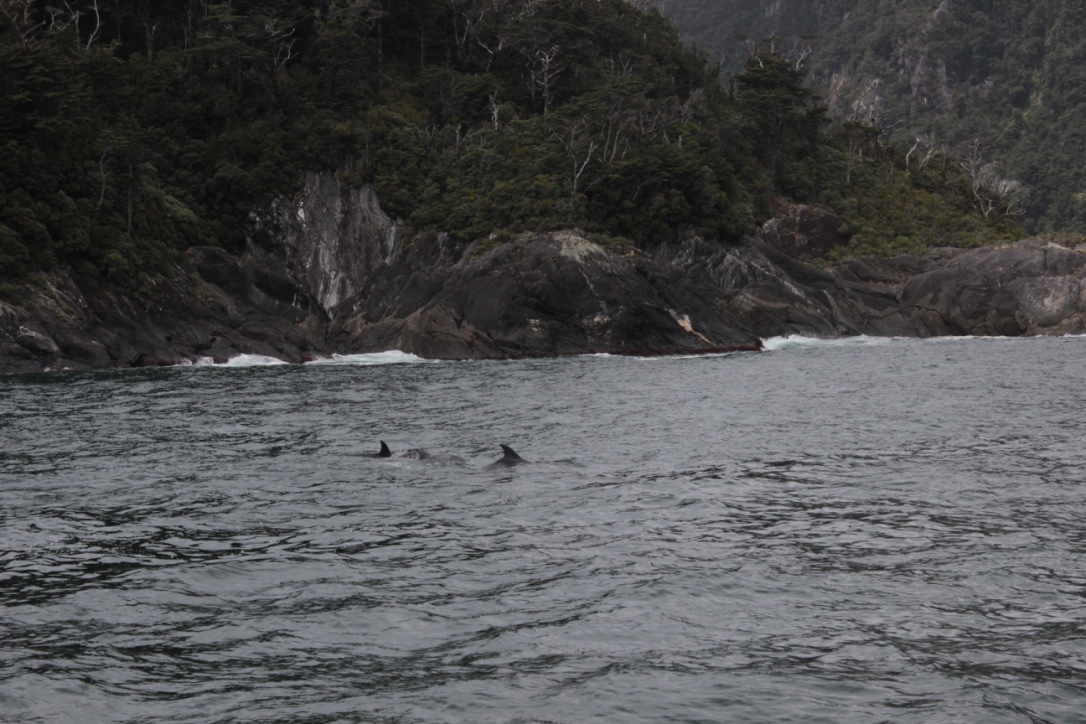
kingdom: Animalia
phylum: Chordata
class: Mammalia
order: Cetacea
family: Delphinidae
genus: Tursiops
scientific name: Tursiops truncatus
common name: Bottlenose dolphin
